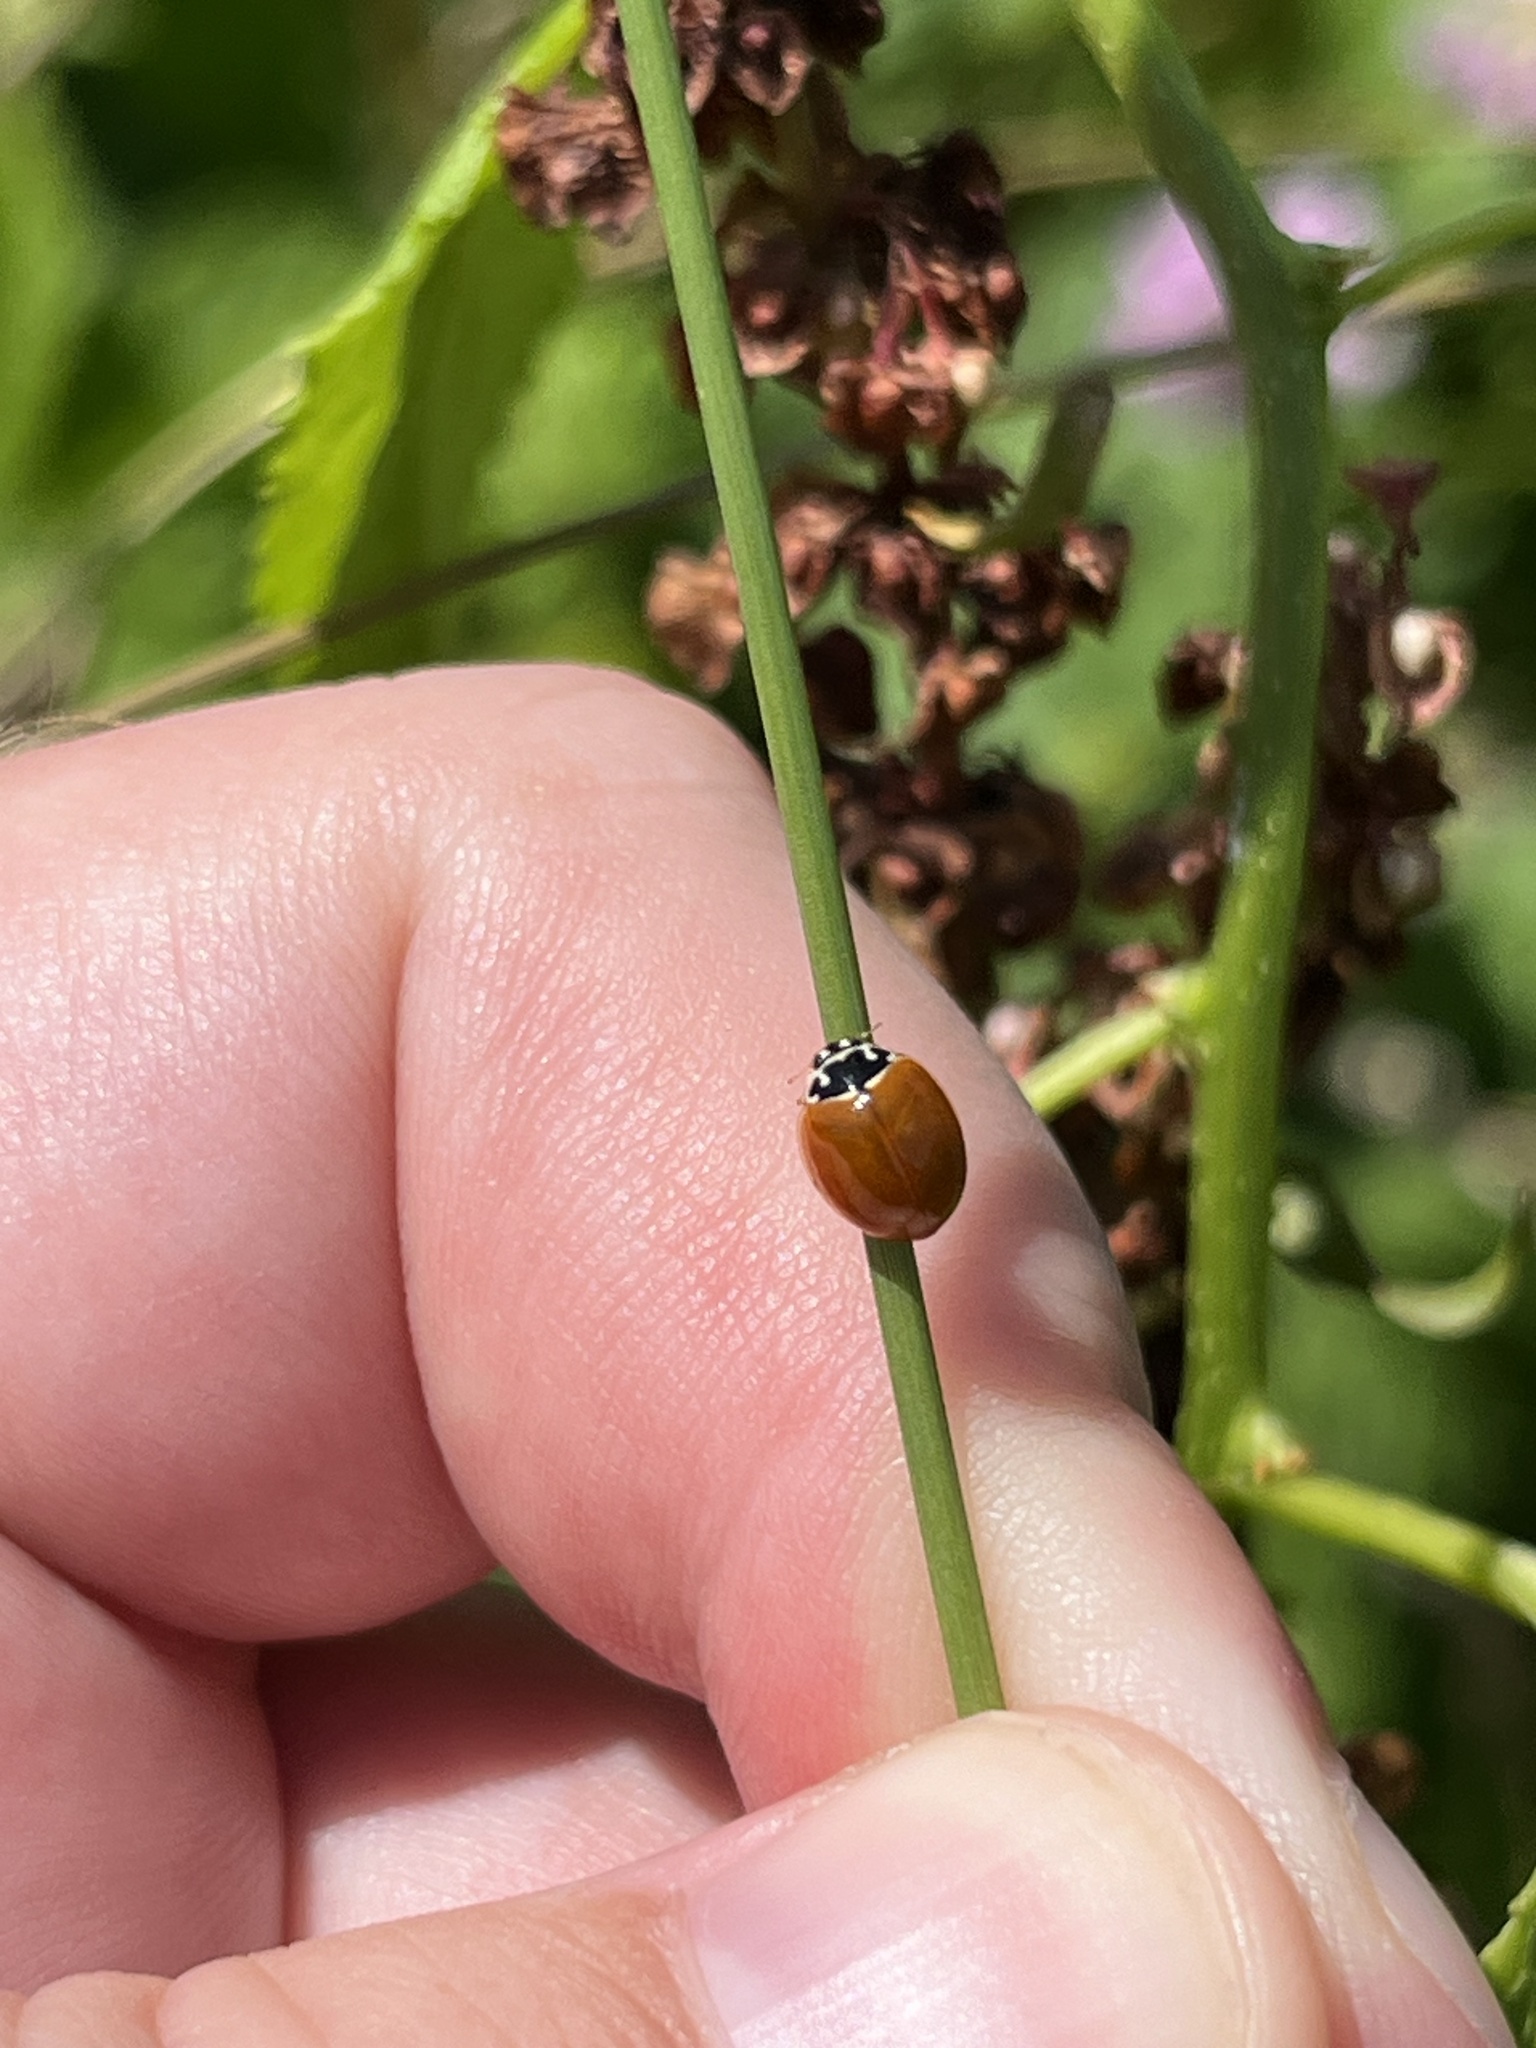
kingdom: Animalia
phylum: Arthropoda
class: Insecta
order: Coleoptera
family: Coccinellidae
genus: Cycloneda
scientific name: Cycloneda munda
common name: Polished lady beetle
